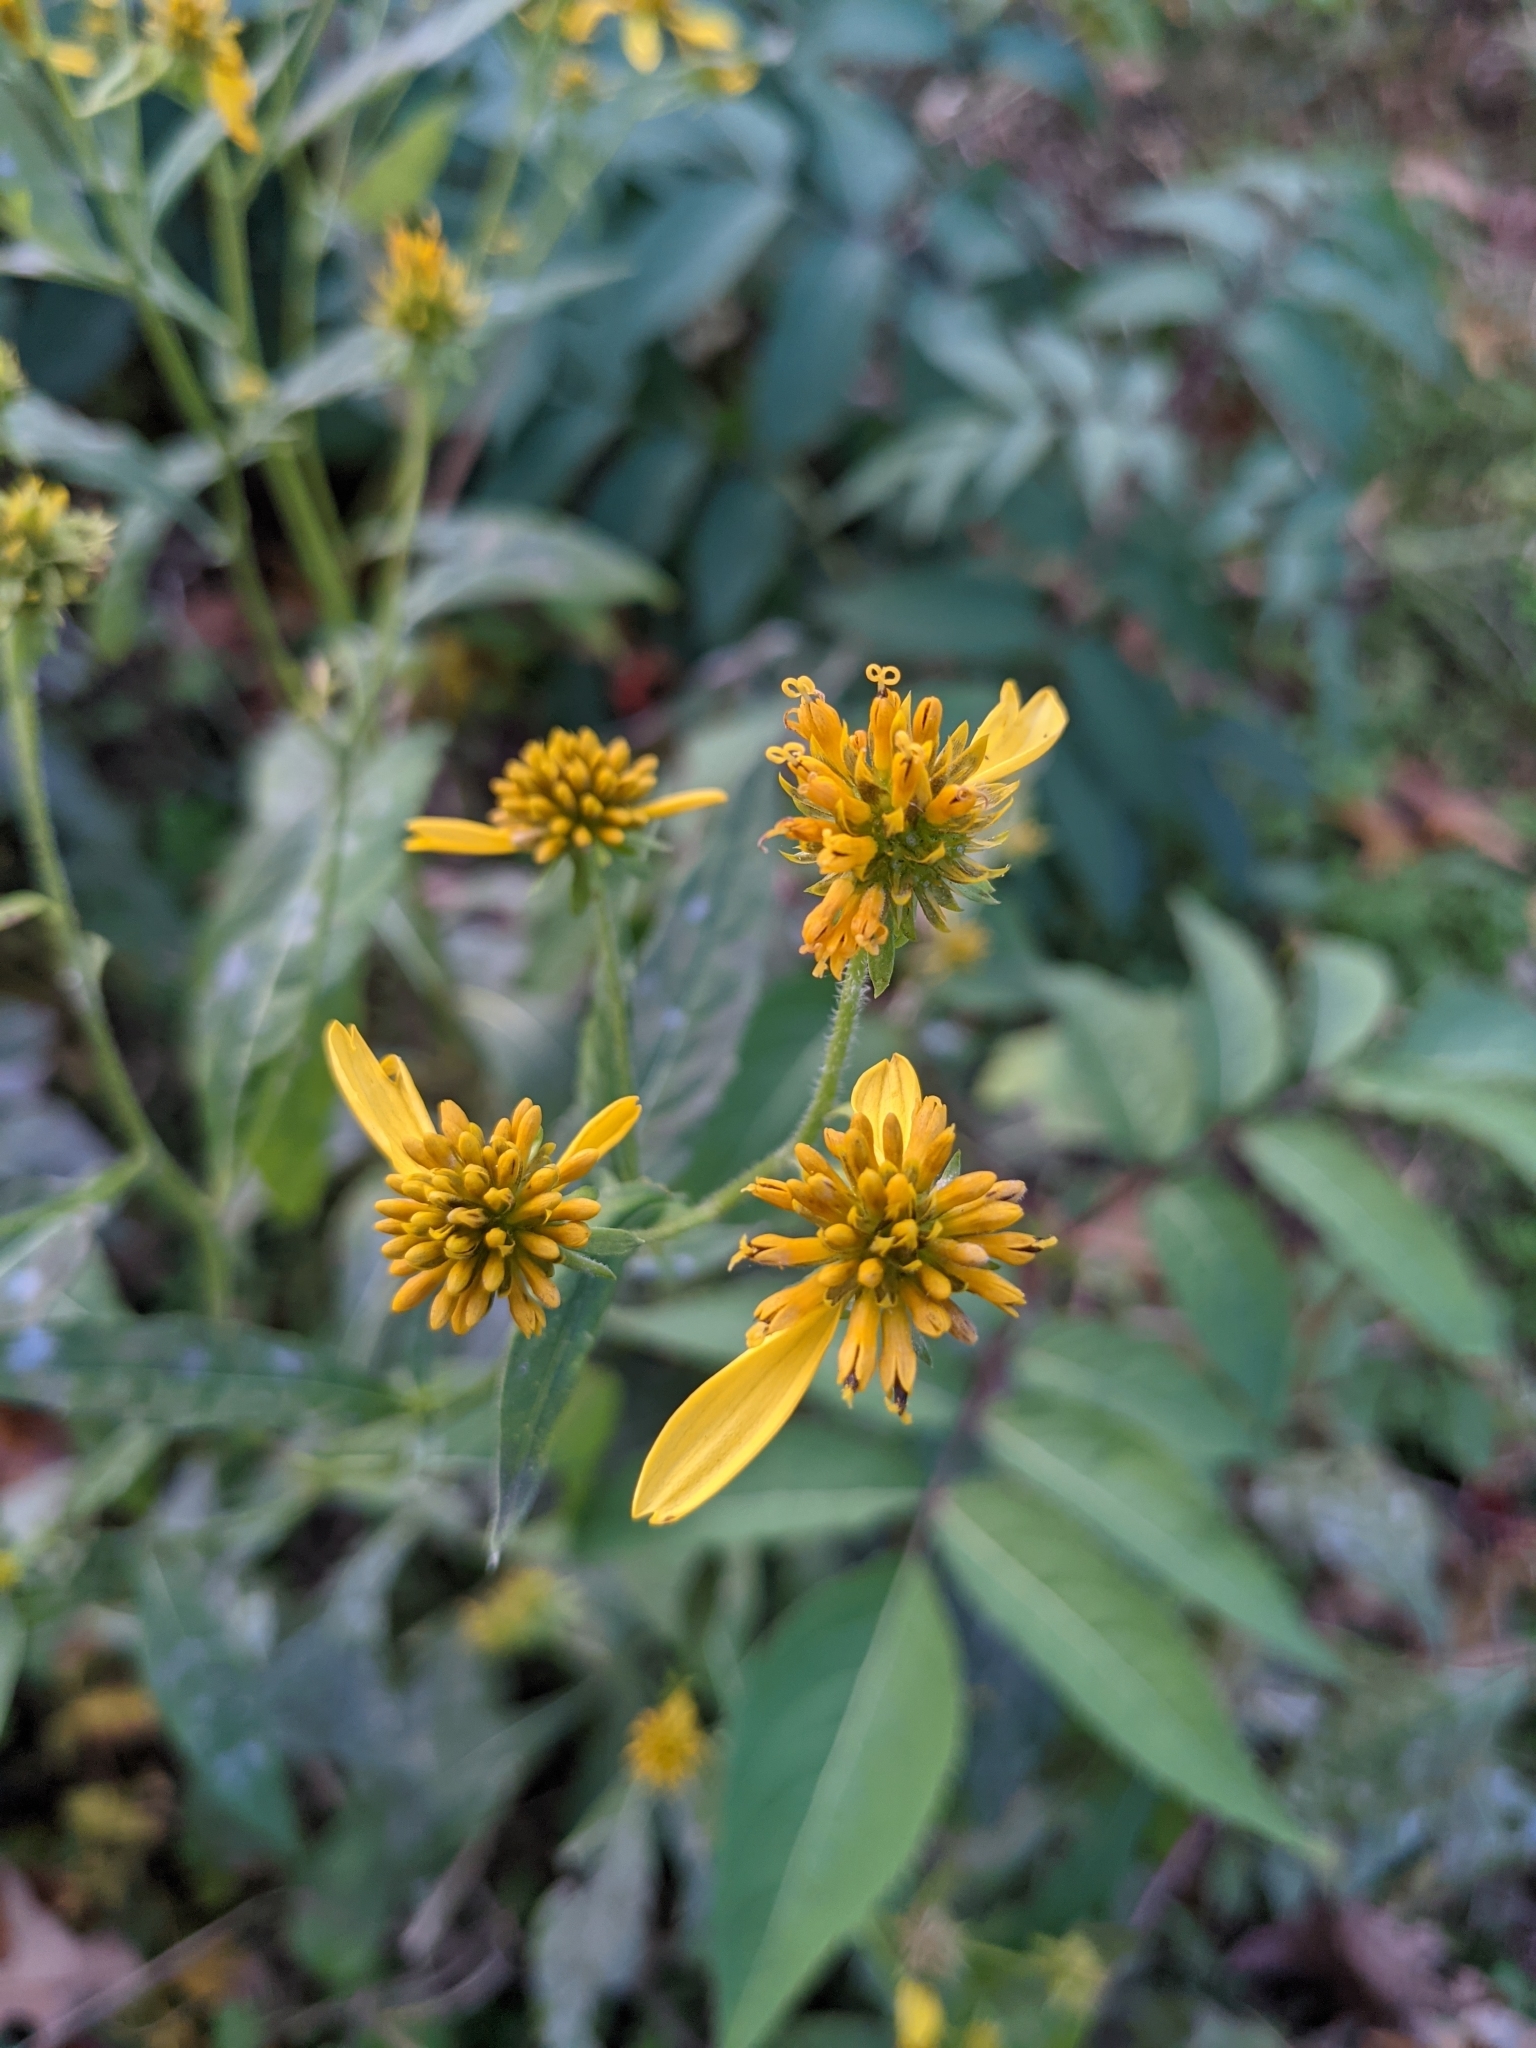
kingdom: Plantae
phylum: Tracheophyta
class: Magnoliopsida
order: Asterales
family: Asteraceae
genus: Verbesina
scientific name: Verbesina alternifolia
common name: Wingstem
